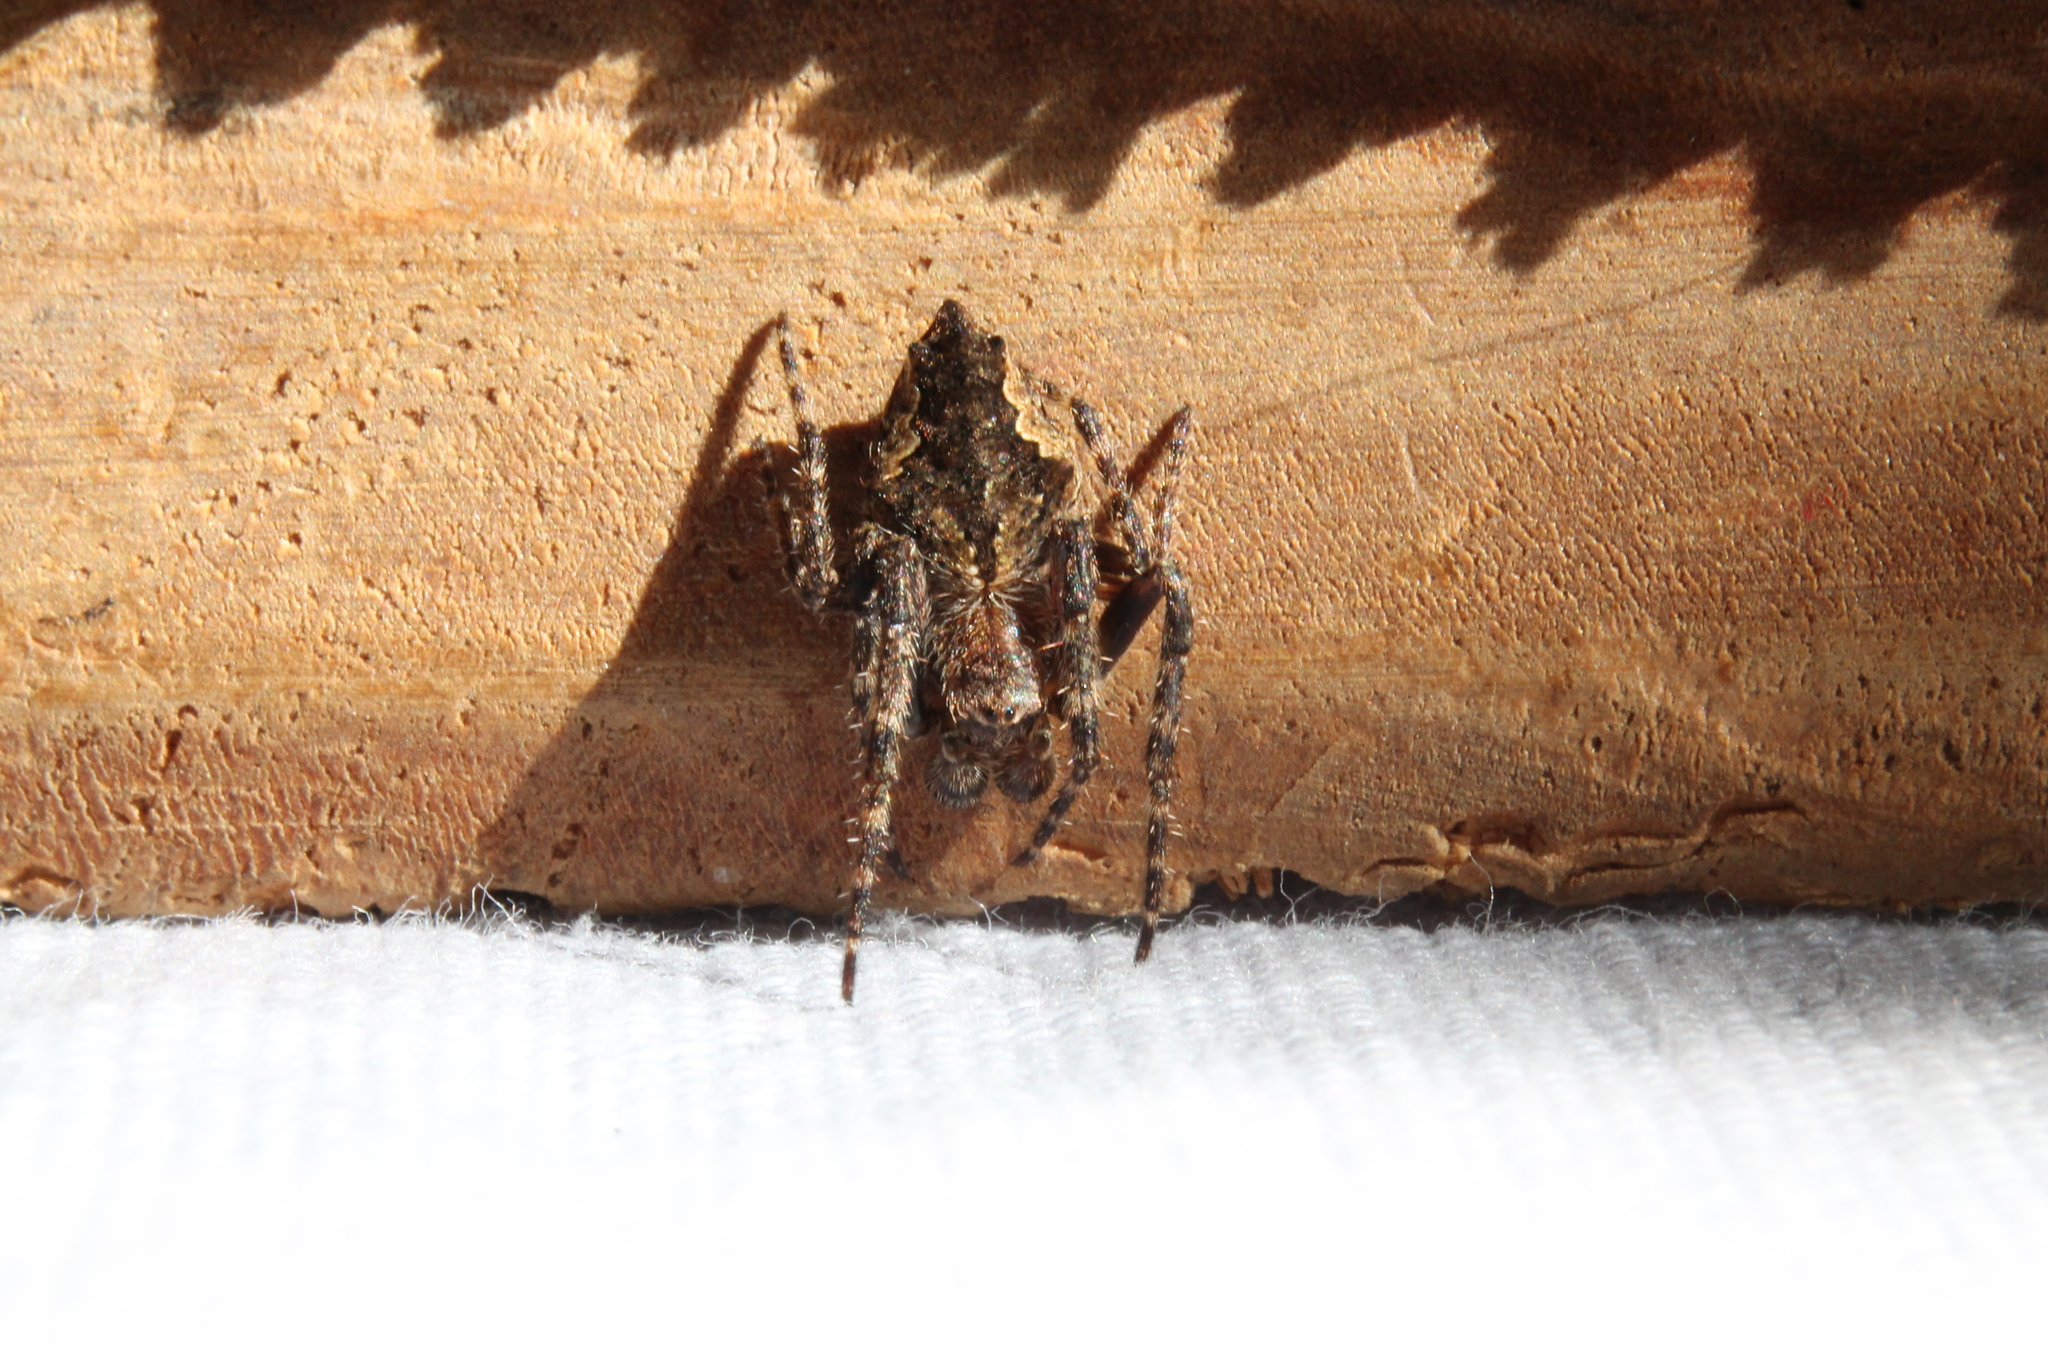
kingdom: Animalia
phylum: Arthropoda
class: Arachnida
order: Araneae
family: Araneidae
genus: Eriophora
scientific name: Eriophora pustulosa
